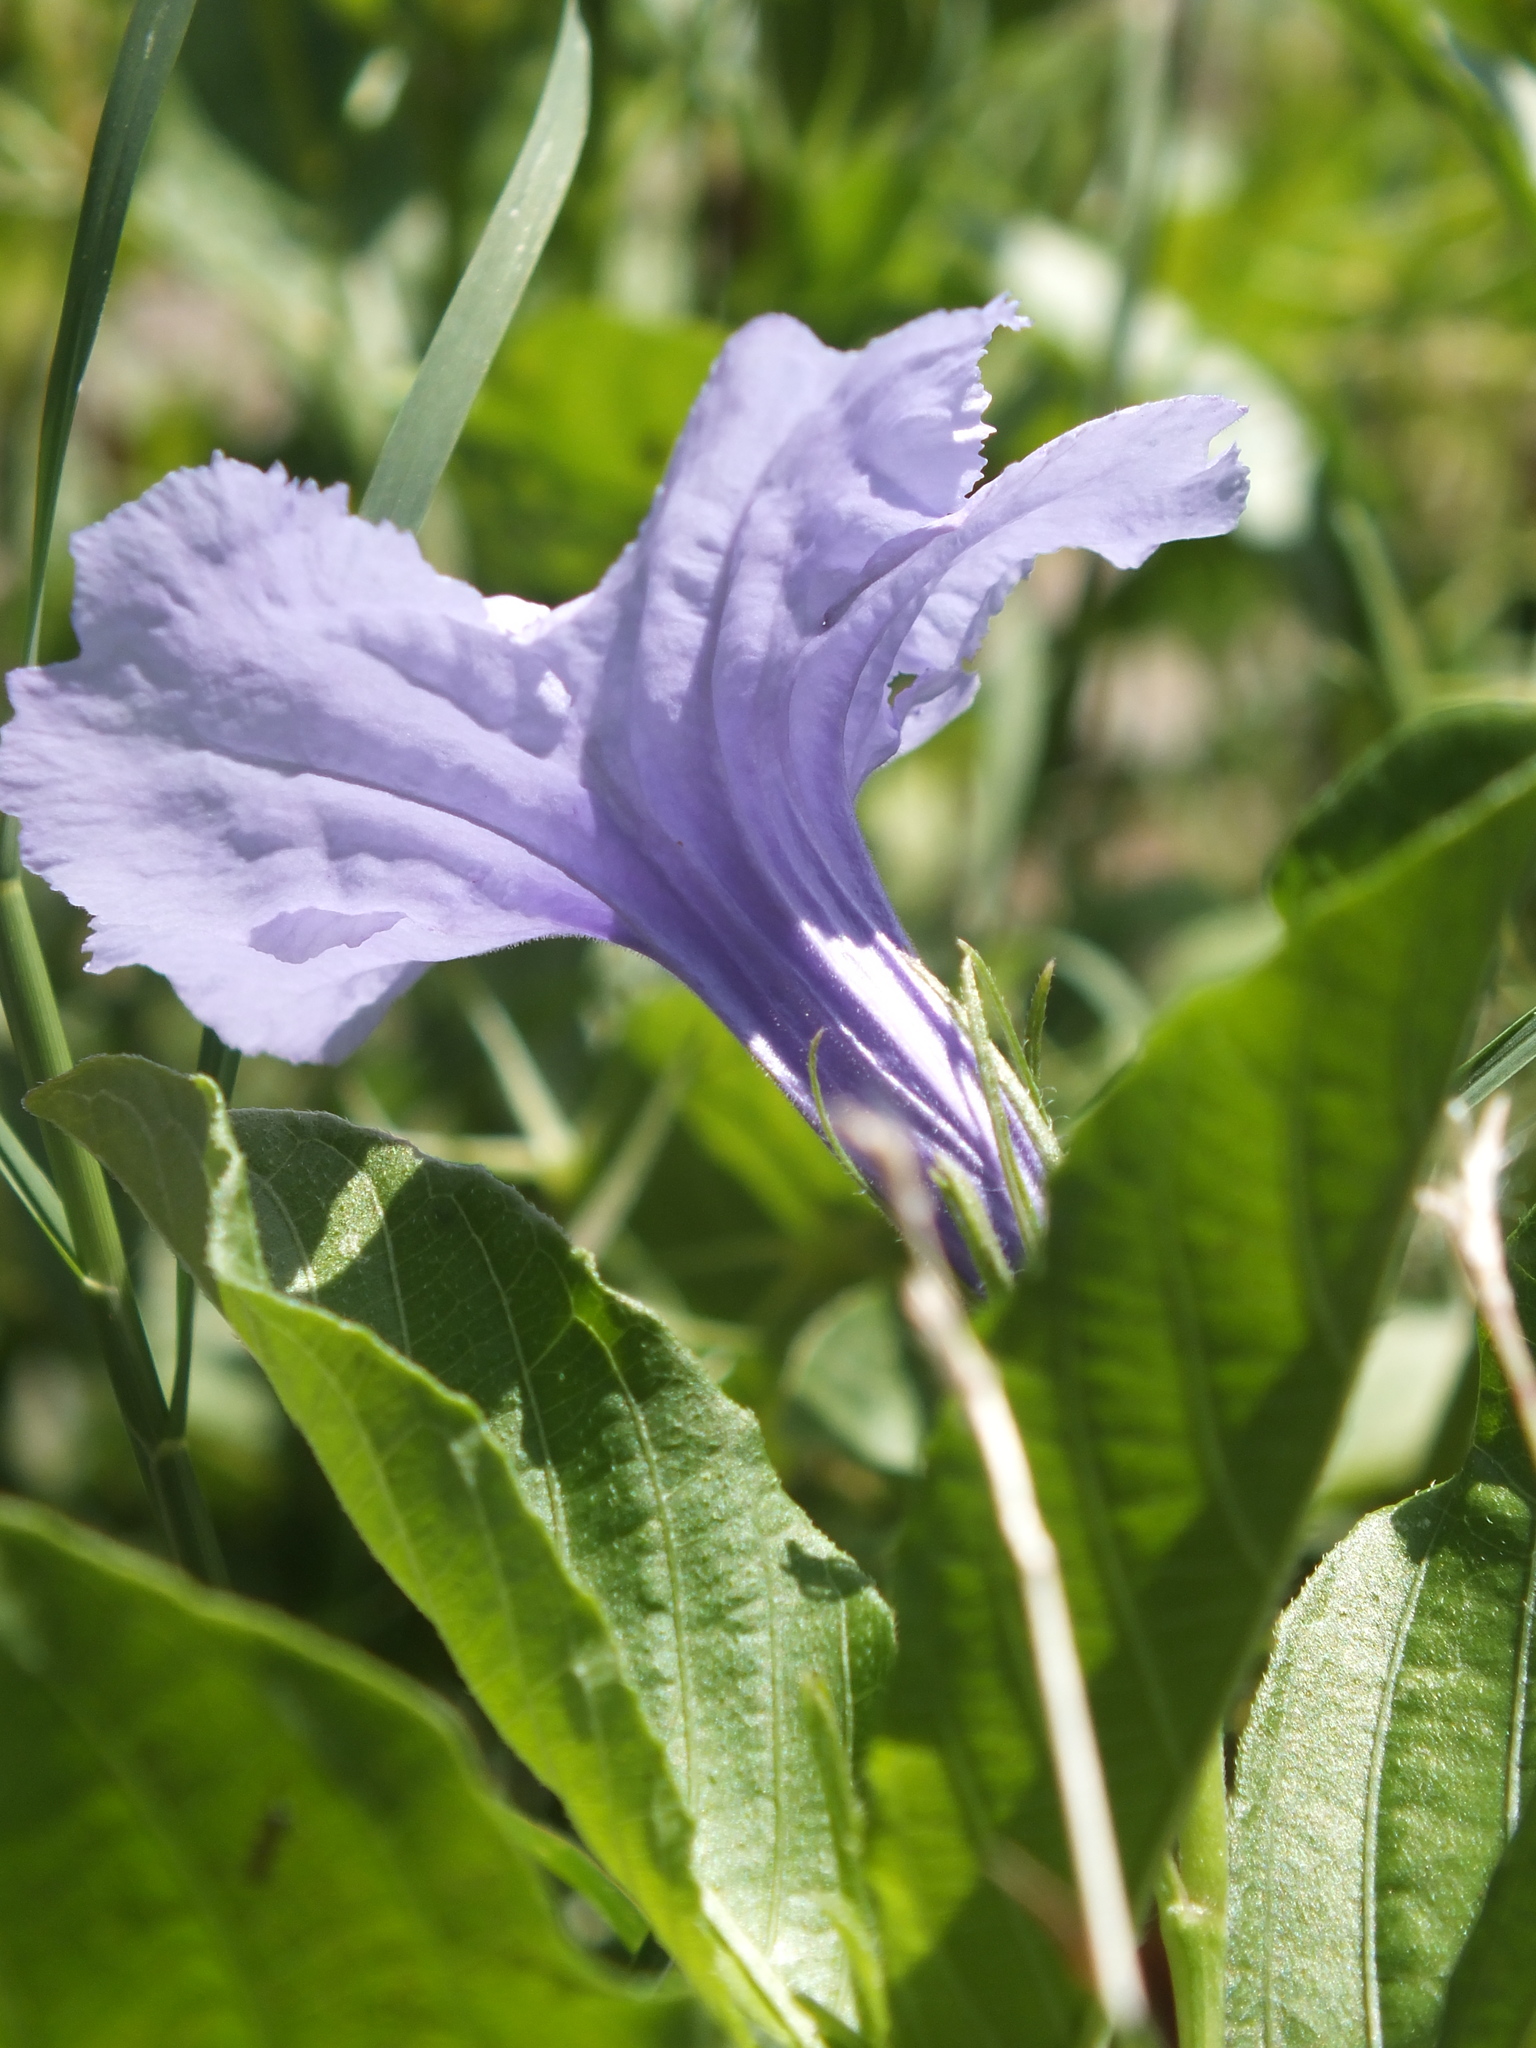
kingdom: Plantae
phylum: Tracheophyta
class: Magnoliopsida
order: Lamiales
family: Acanthaceae
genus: Ruellia
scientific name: Ruellia tuberosa
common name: Devil's bit
